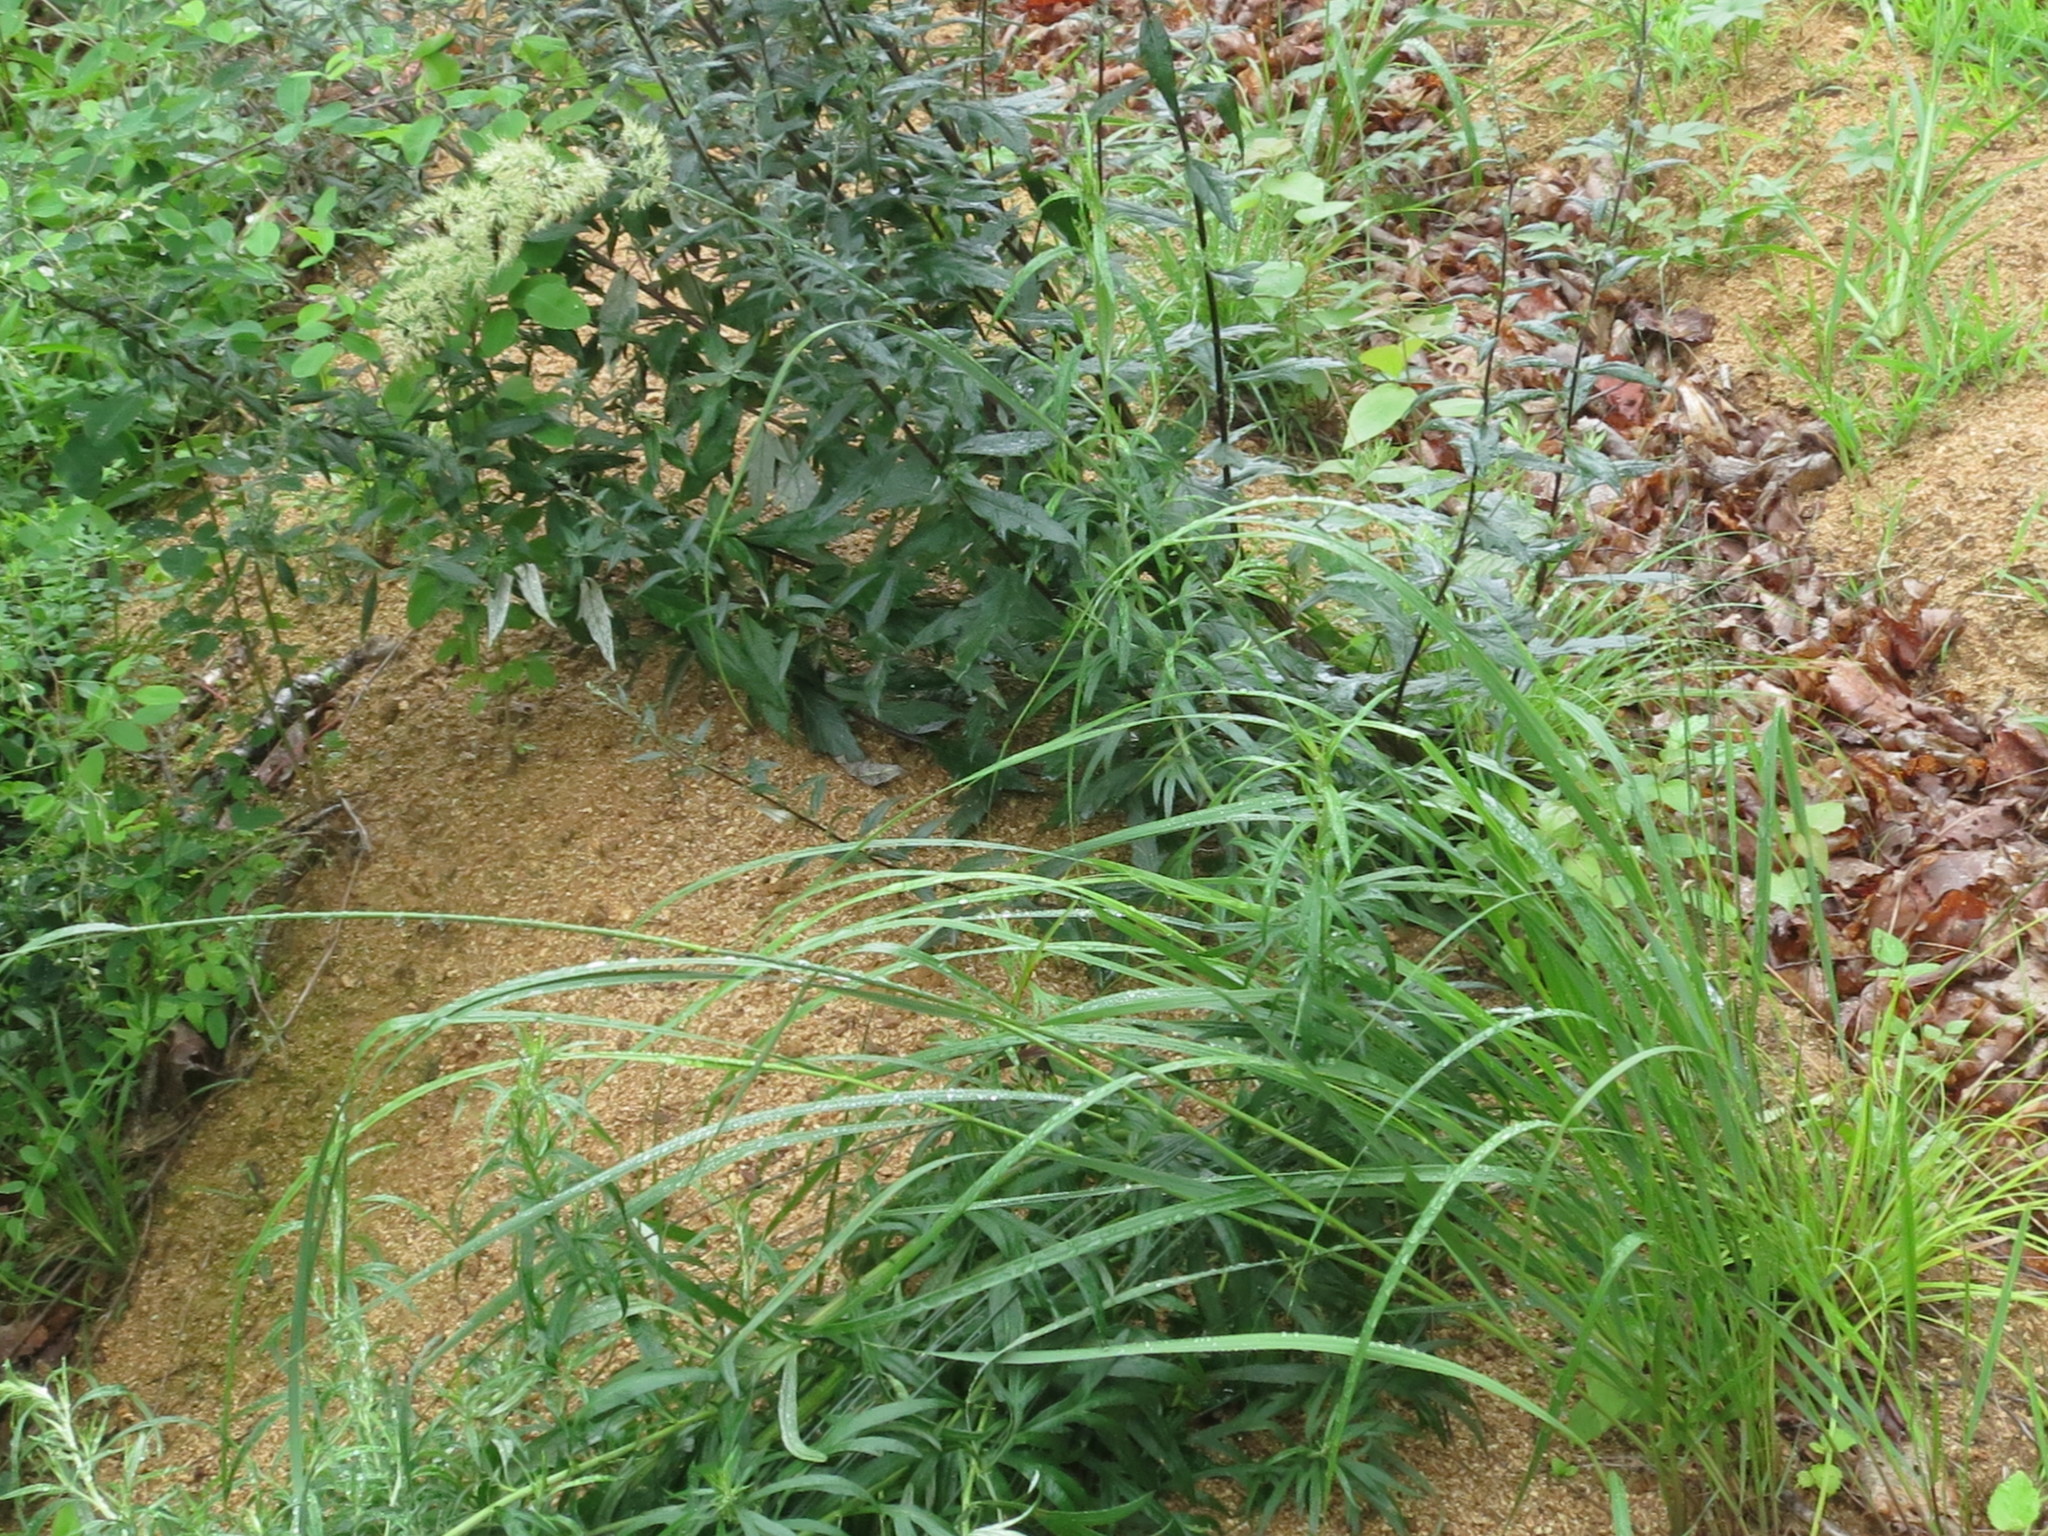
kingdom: Plantae
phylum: Tracheophyta
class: Liliopsida
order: Poales
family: Poaceae
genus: Calamagrostis
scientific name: Calamagrostis extremiorientalis
